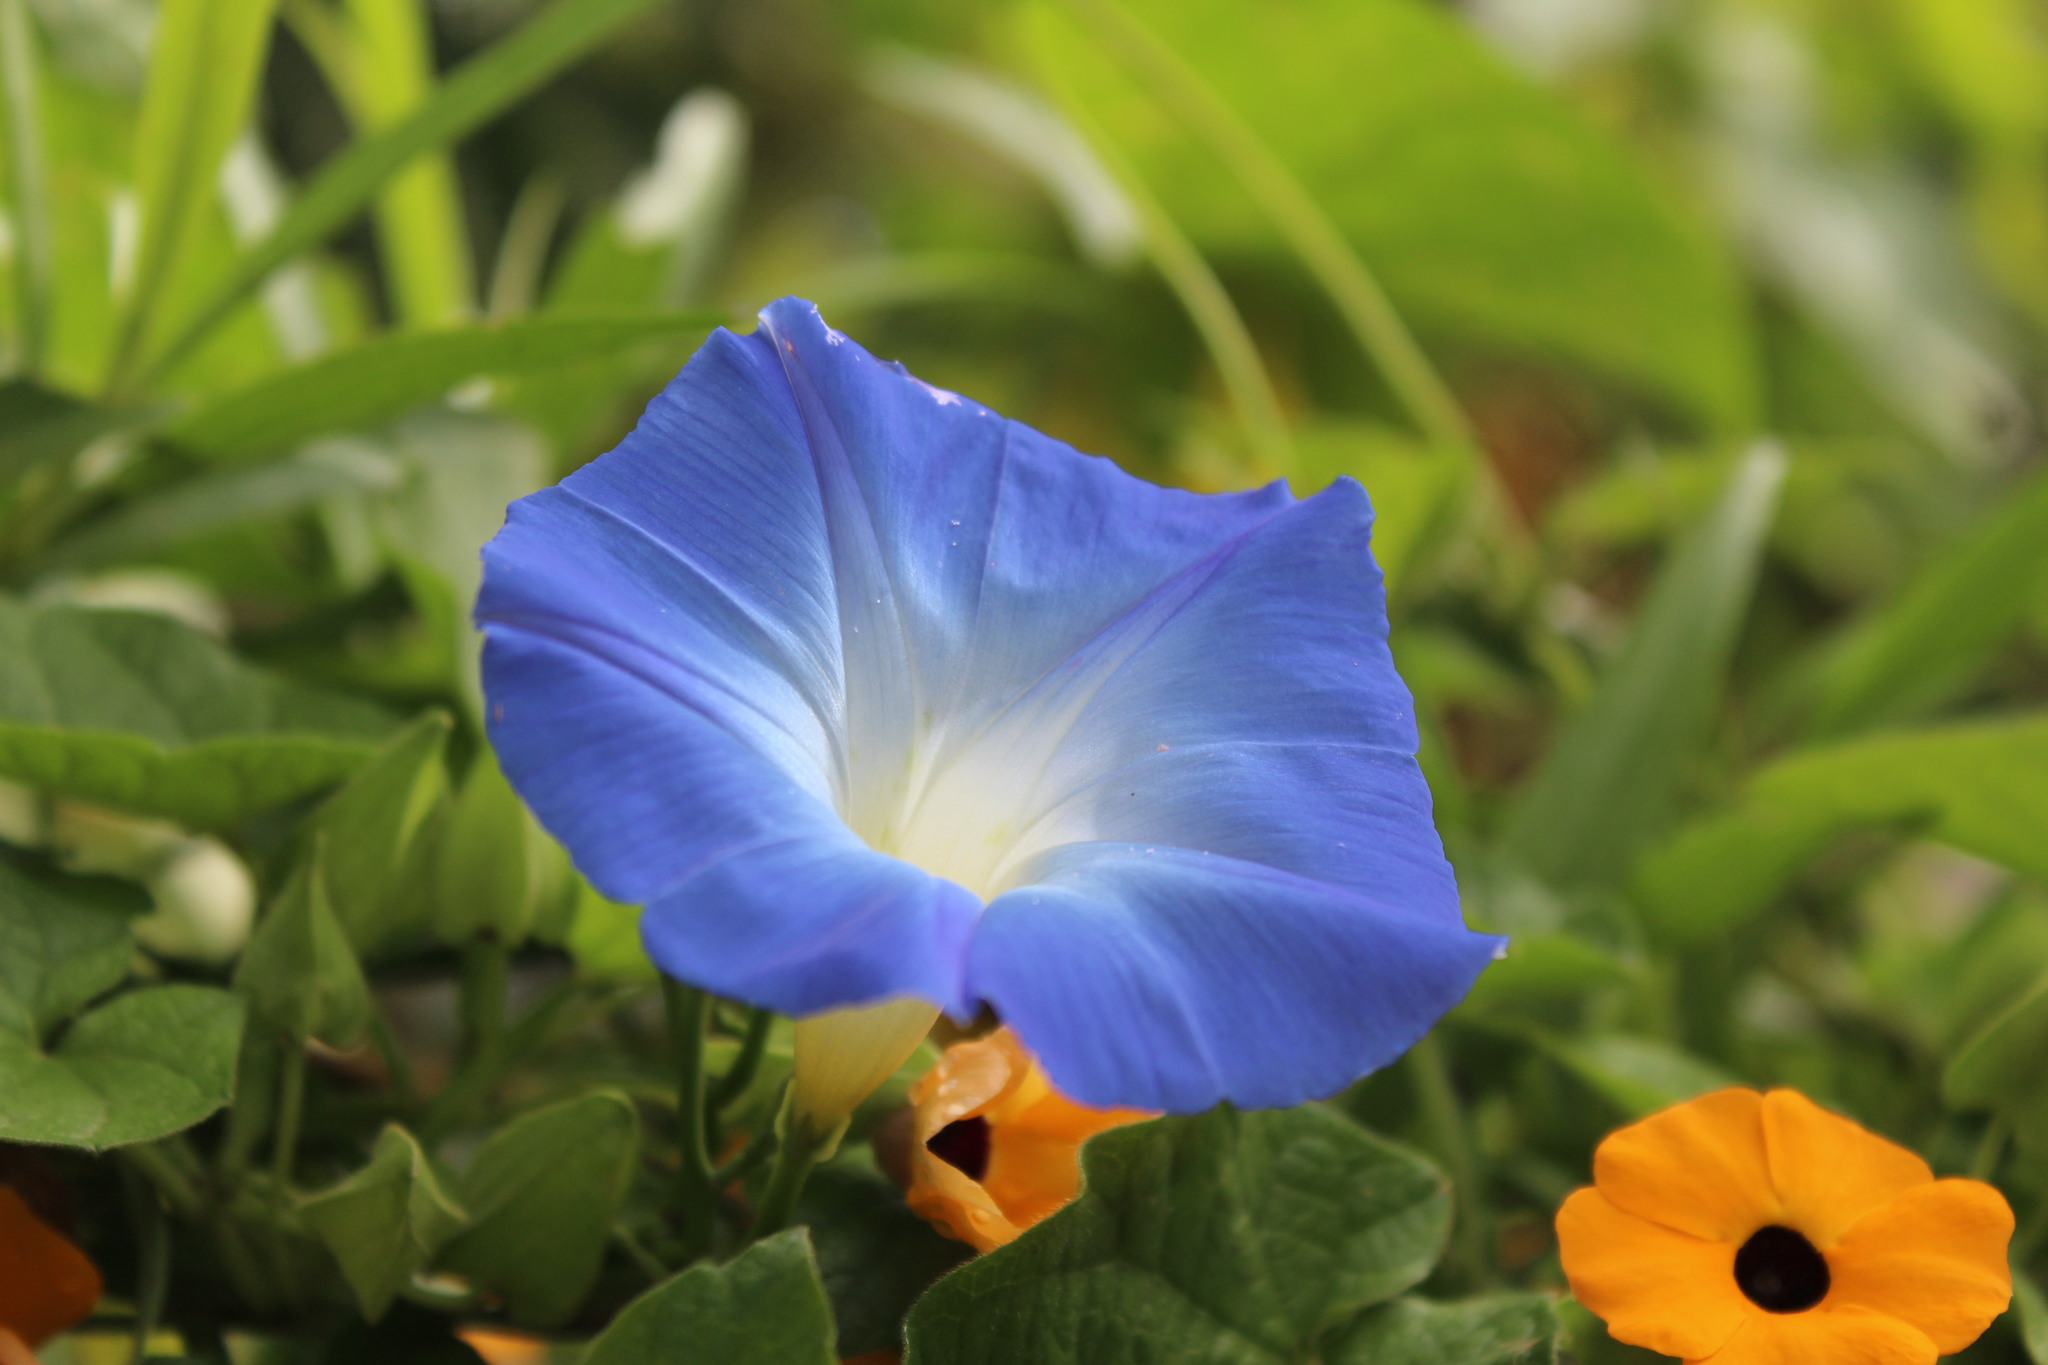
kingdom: Plantae
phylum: Tracheophyta
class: Magnoliopsida
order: Solanales
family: Convolvulaceae
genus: Ipomoea
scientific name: Ipomoea tricolor
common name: Morning-glory
